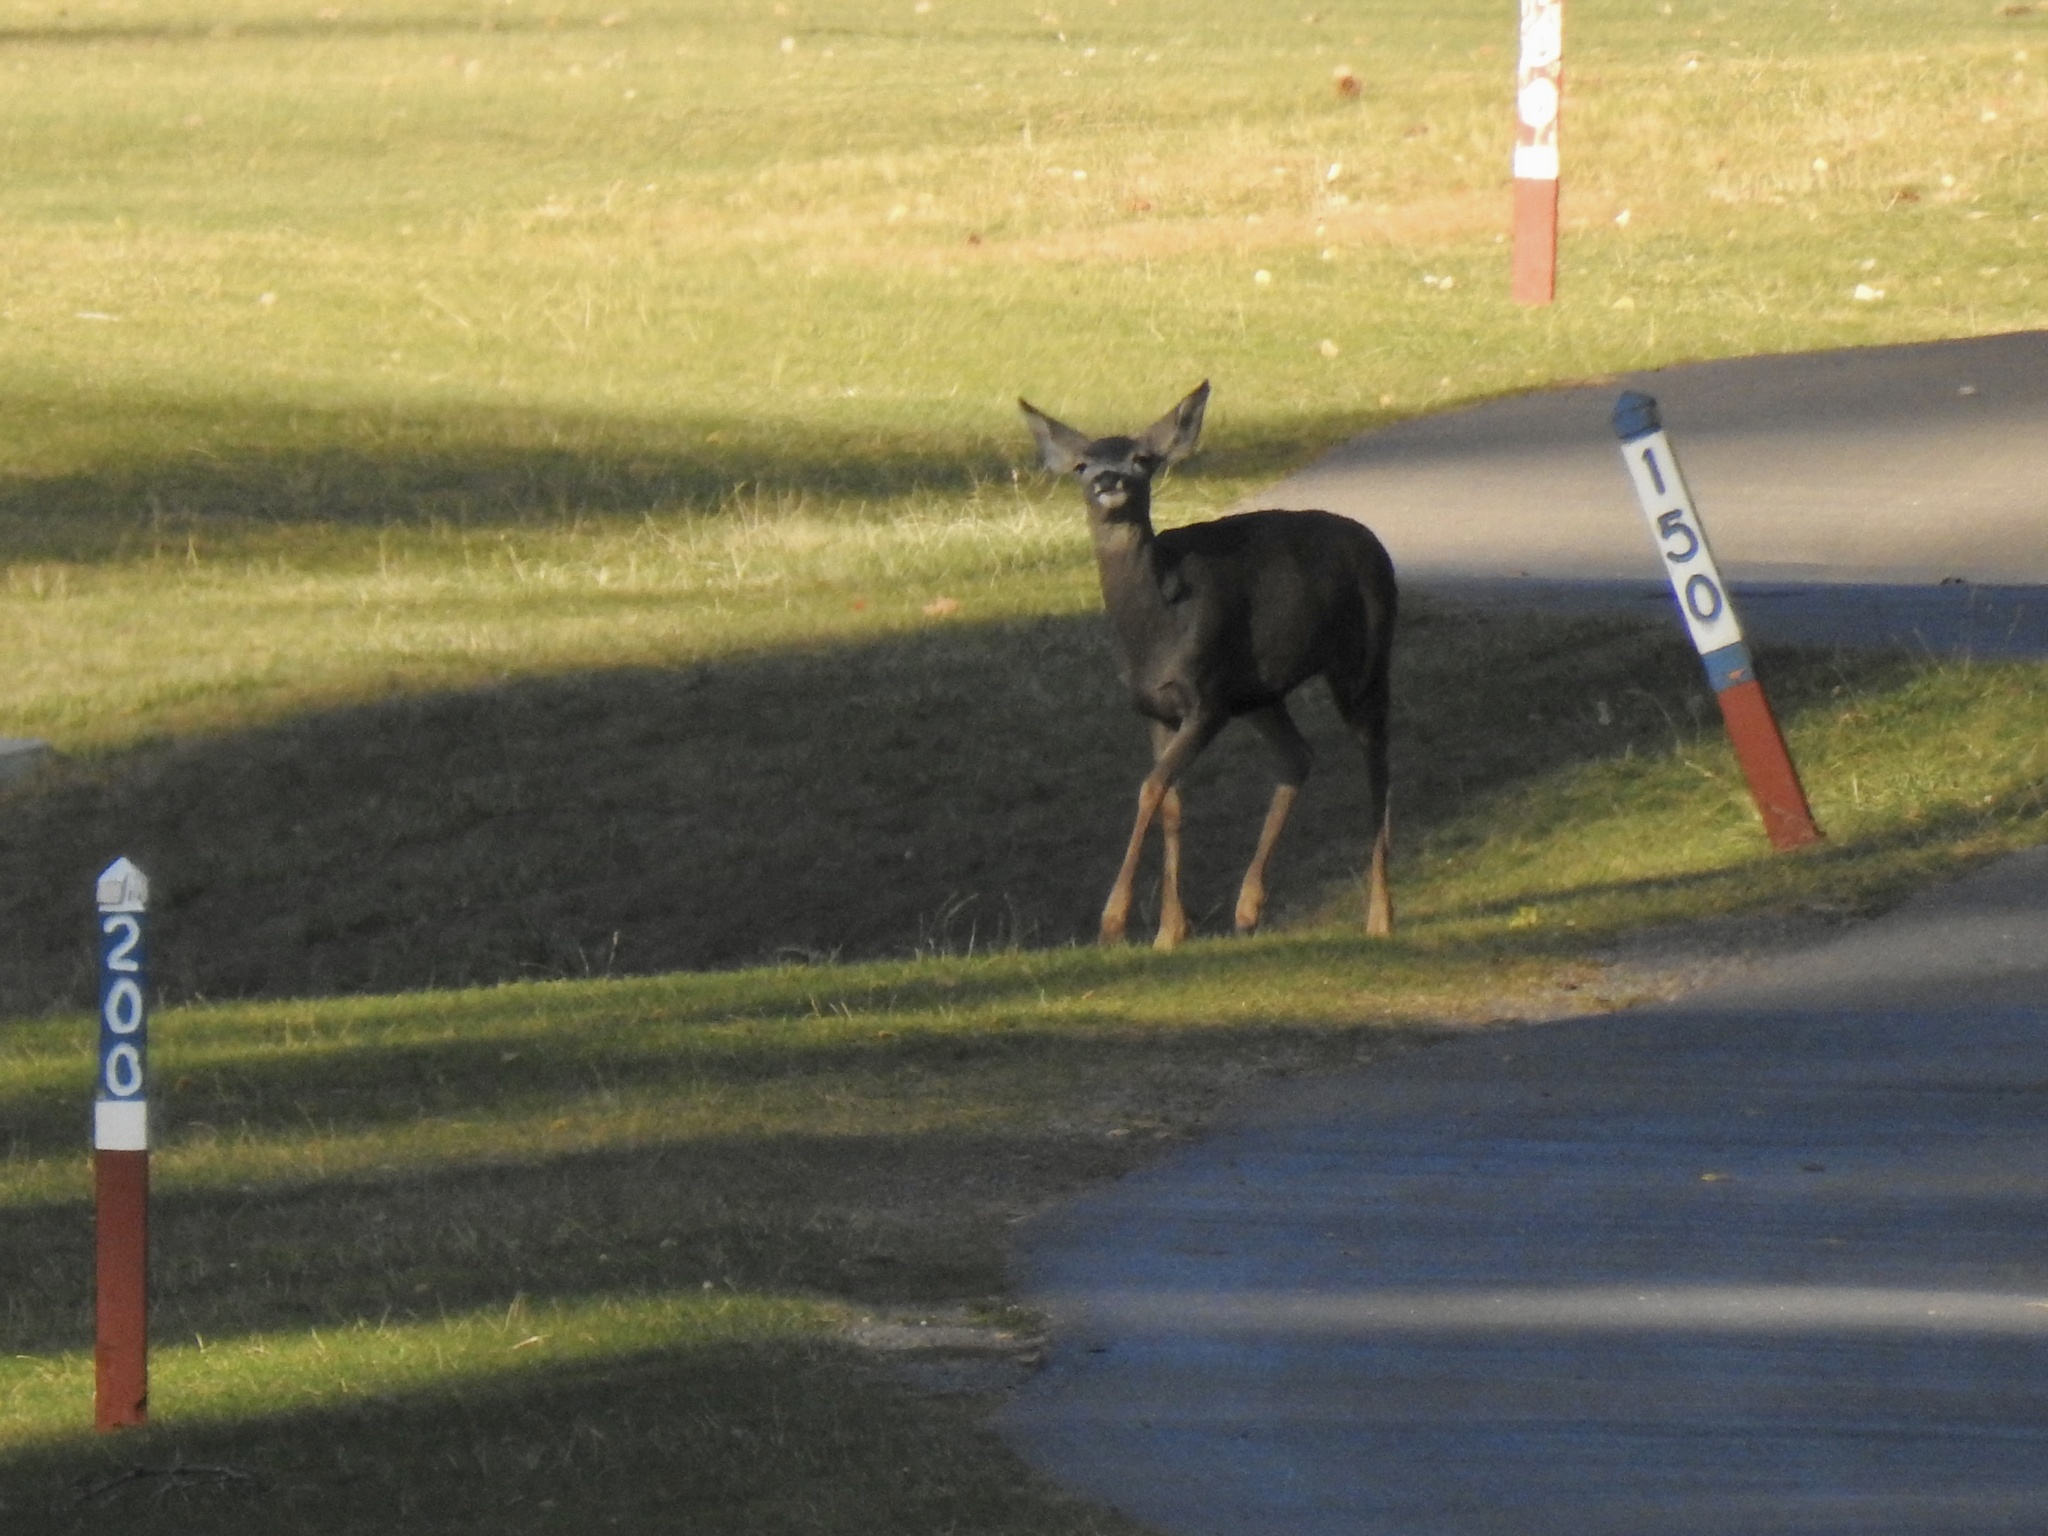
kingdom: Animalia
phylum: Chordata
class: Mammalia
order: Artiodactyla
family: Cervidae
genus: Odocoileus
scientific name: Odocoileus hemionus
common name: Mule deer
